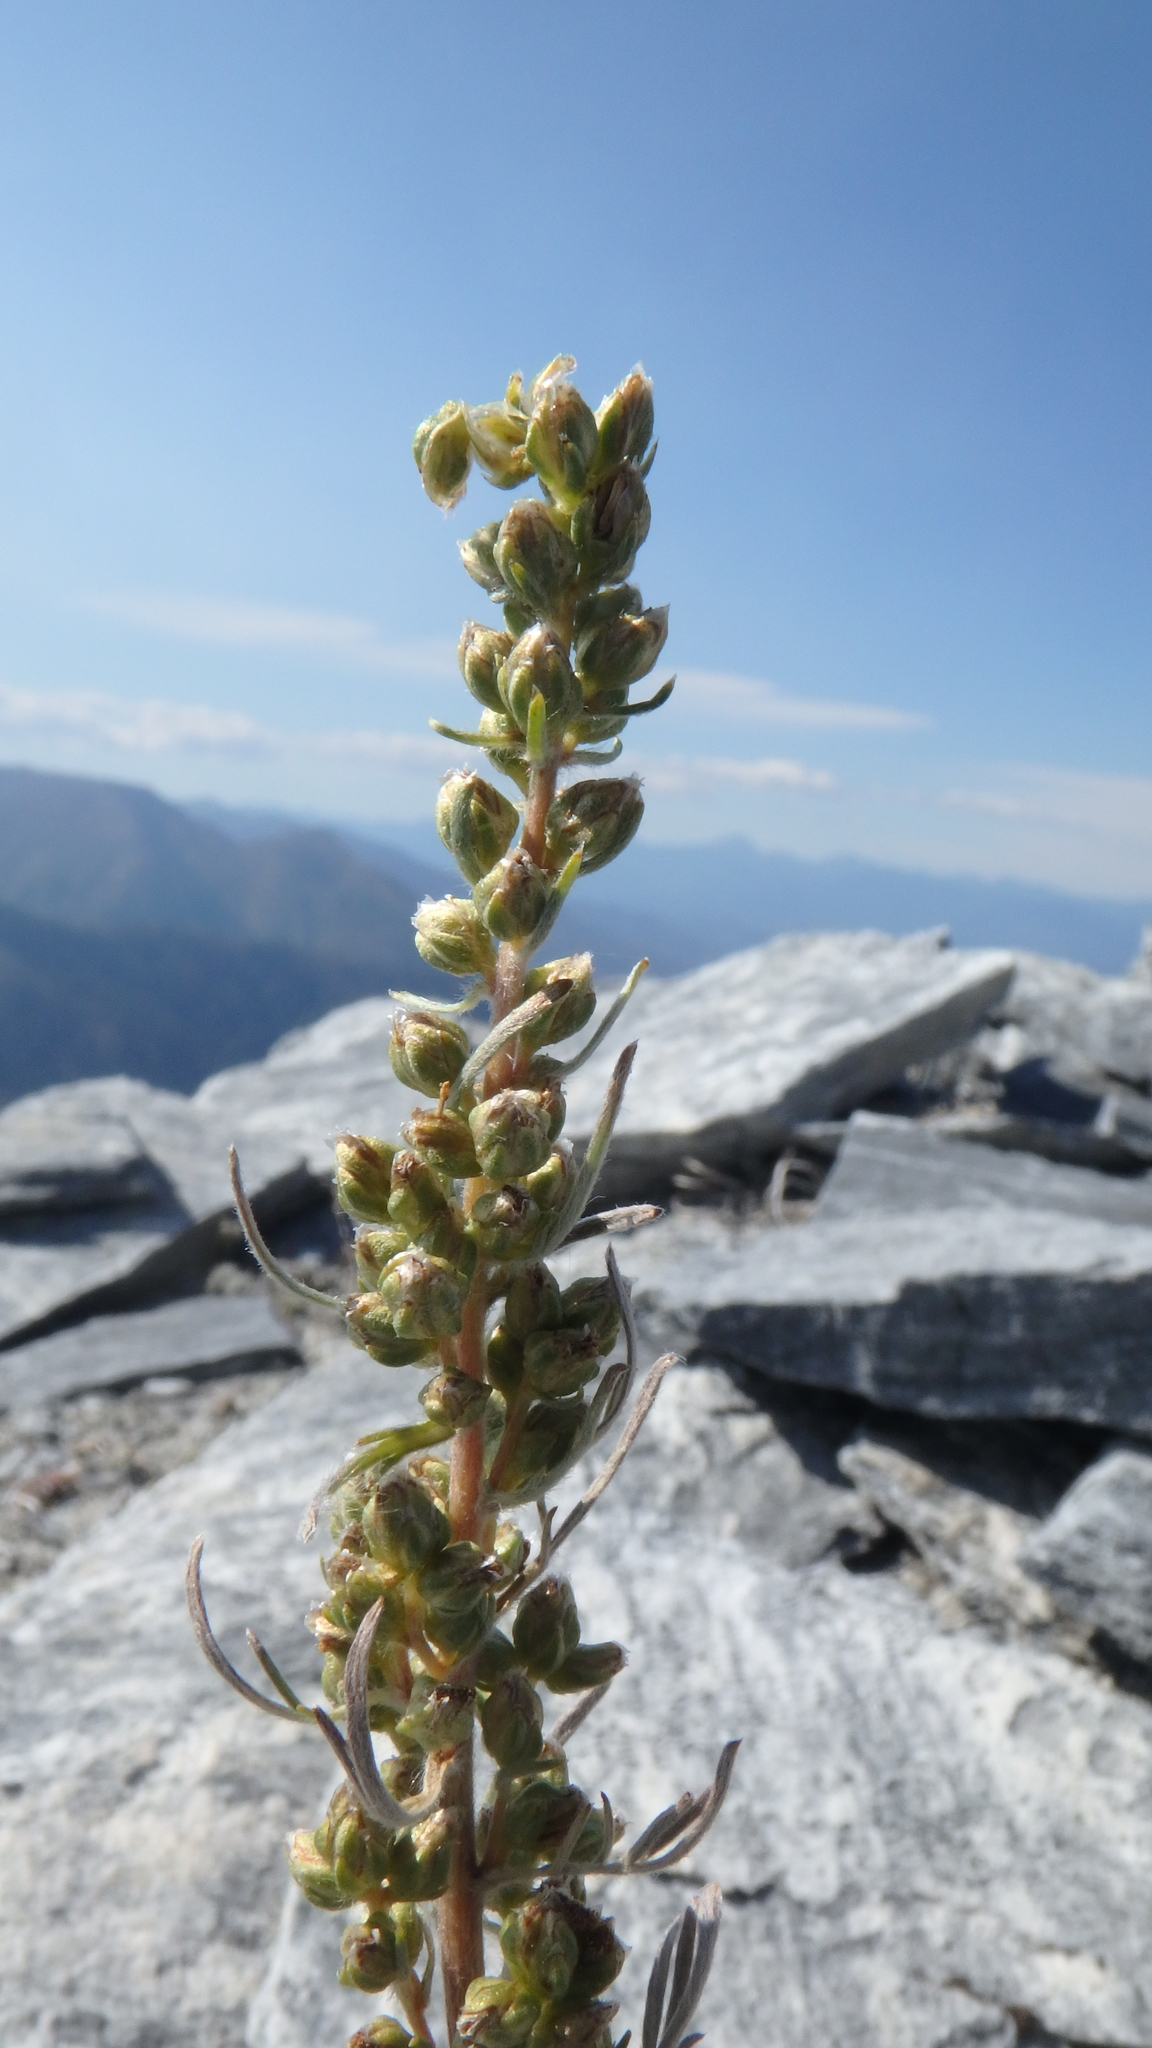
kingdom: Plantae
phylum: Tracheophyta
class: Magnoliopsida
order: Asterales
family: Asteraceae
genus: Artemisia
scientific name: Artemisia borealis
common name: Boreal sage
